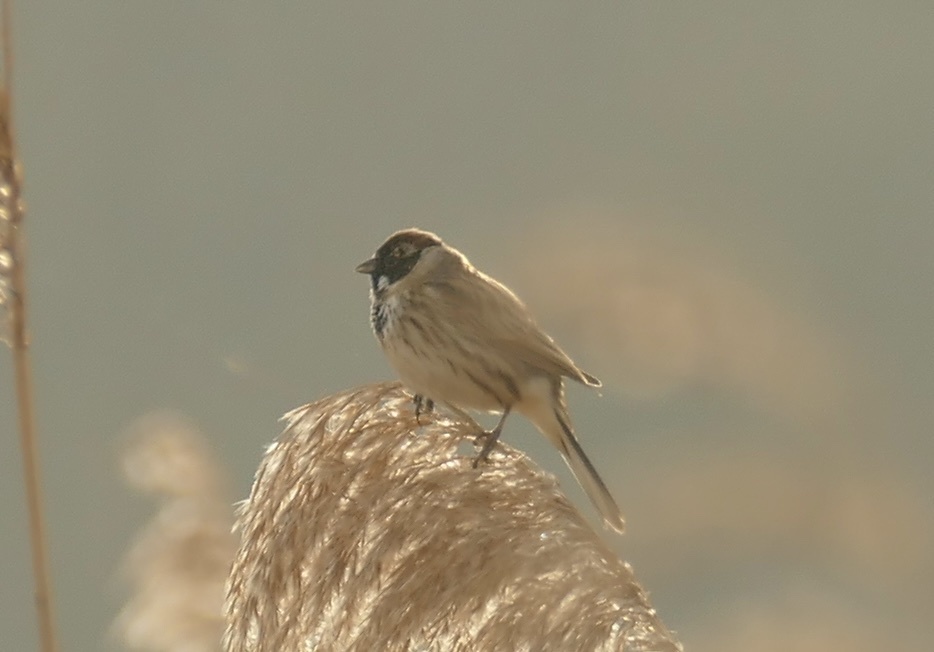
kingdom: Animalia
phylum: Chordata
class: Aves
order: Passeriformes
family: Emberizidae
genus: Emberiza
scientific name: Emberiza schoeniclus
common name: Reed bunting
